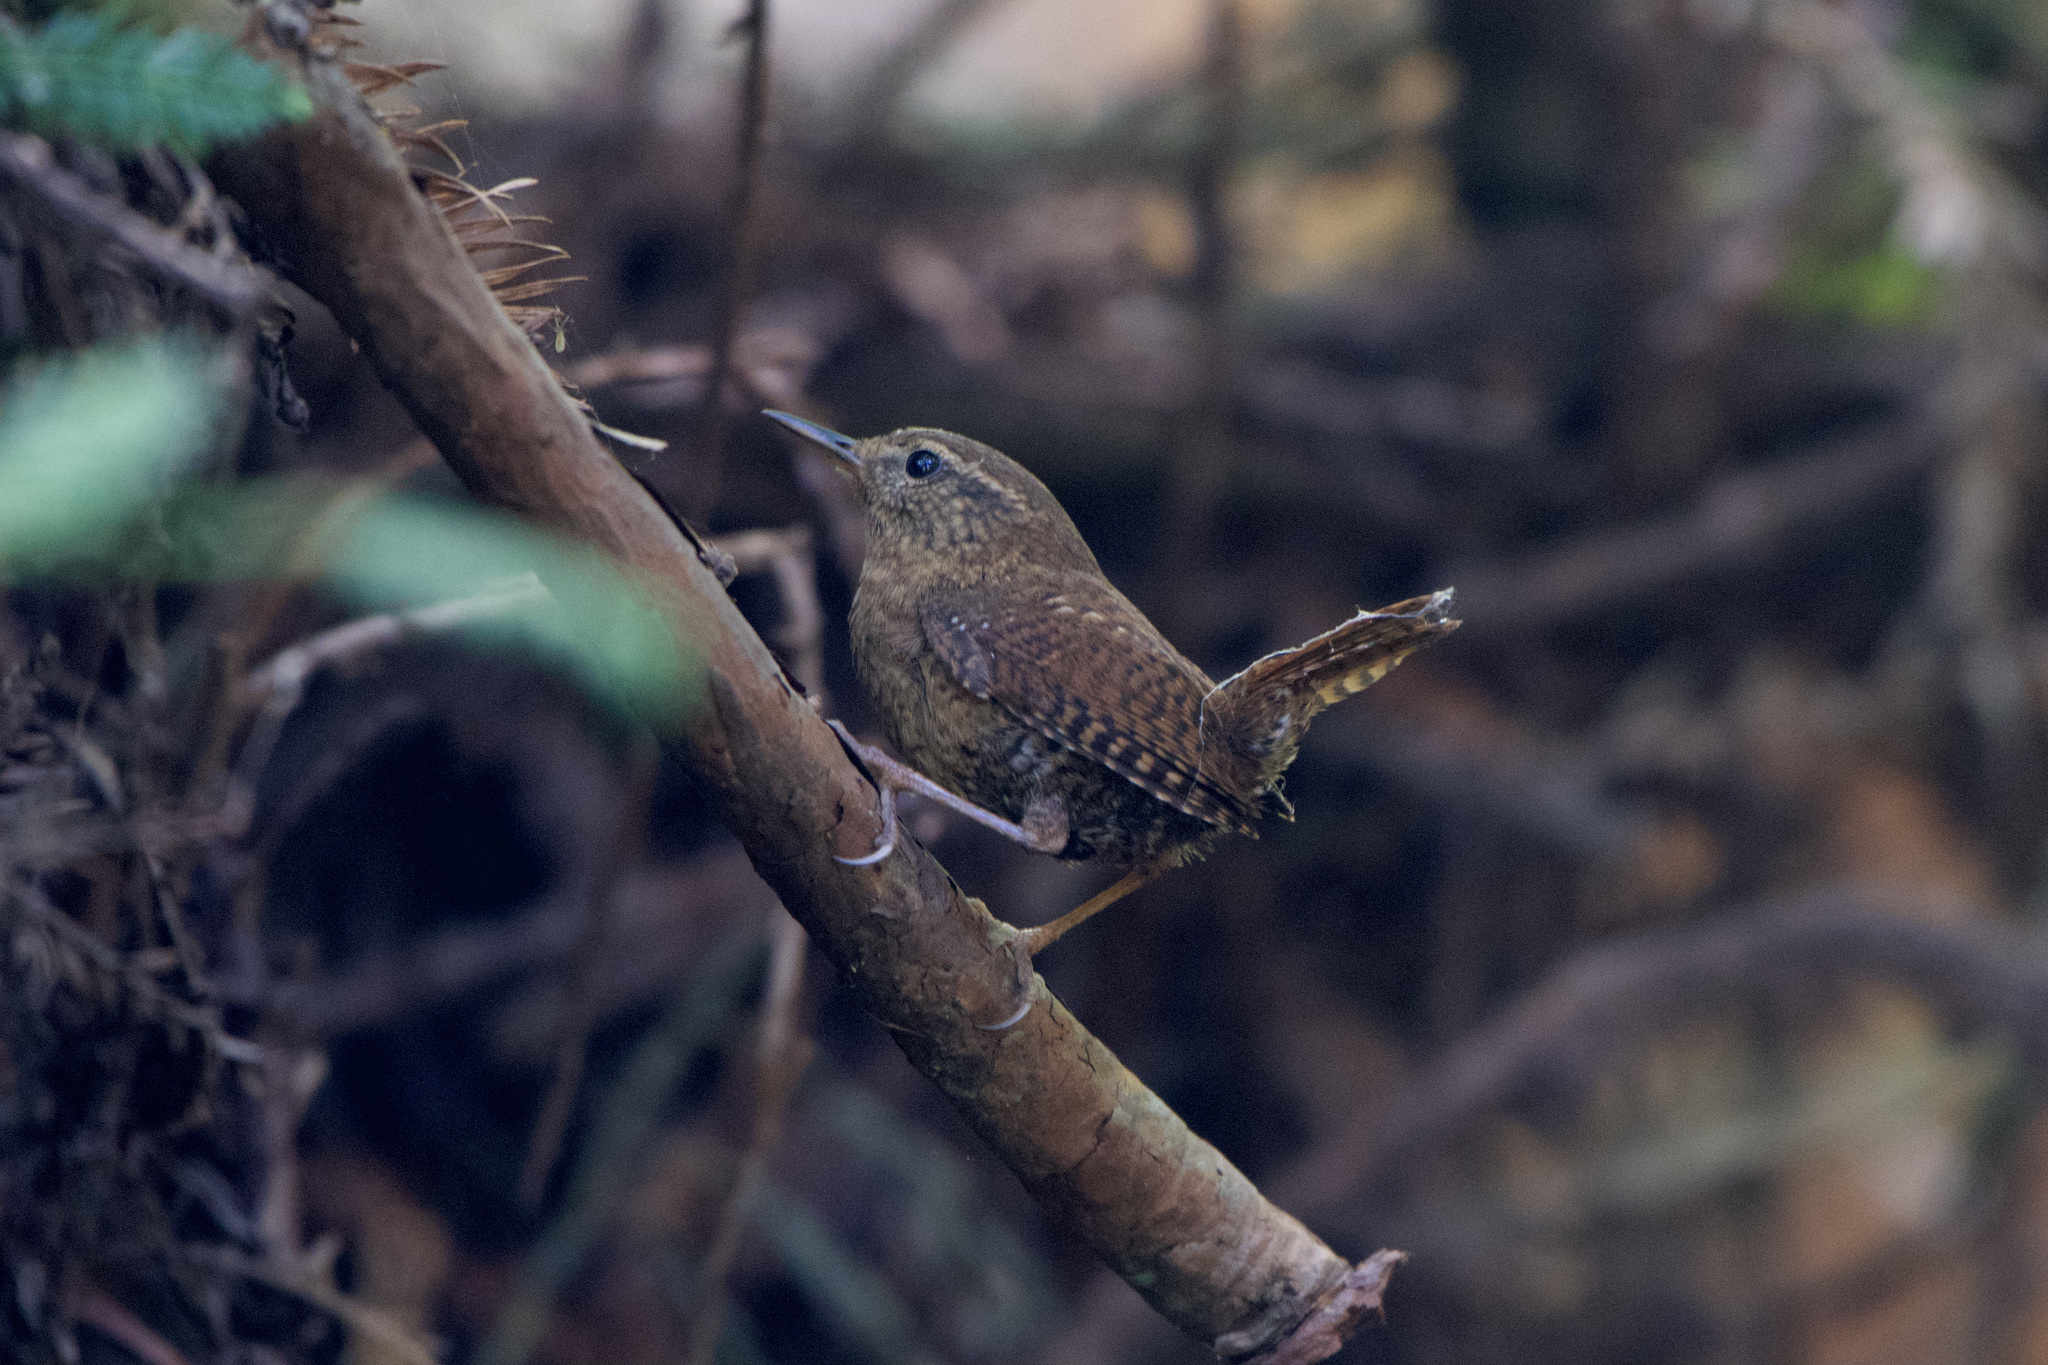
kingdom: Animalia
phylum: Chordata
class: Aves
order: Passeriformes
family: Troglodytidae
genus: Troglodytes
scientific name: Troglodytes pacificus
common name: Pacific wren
